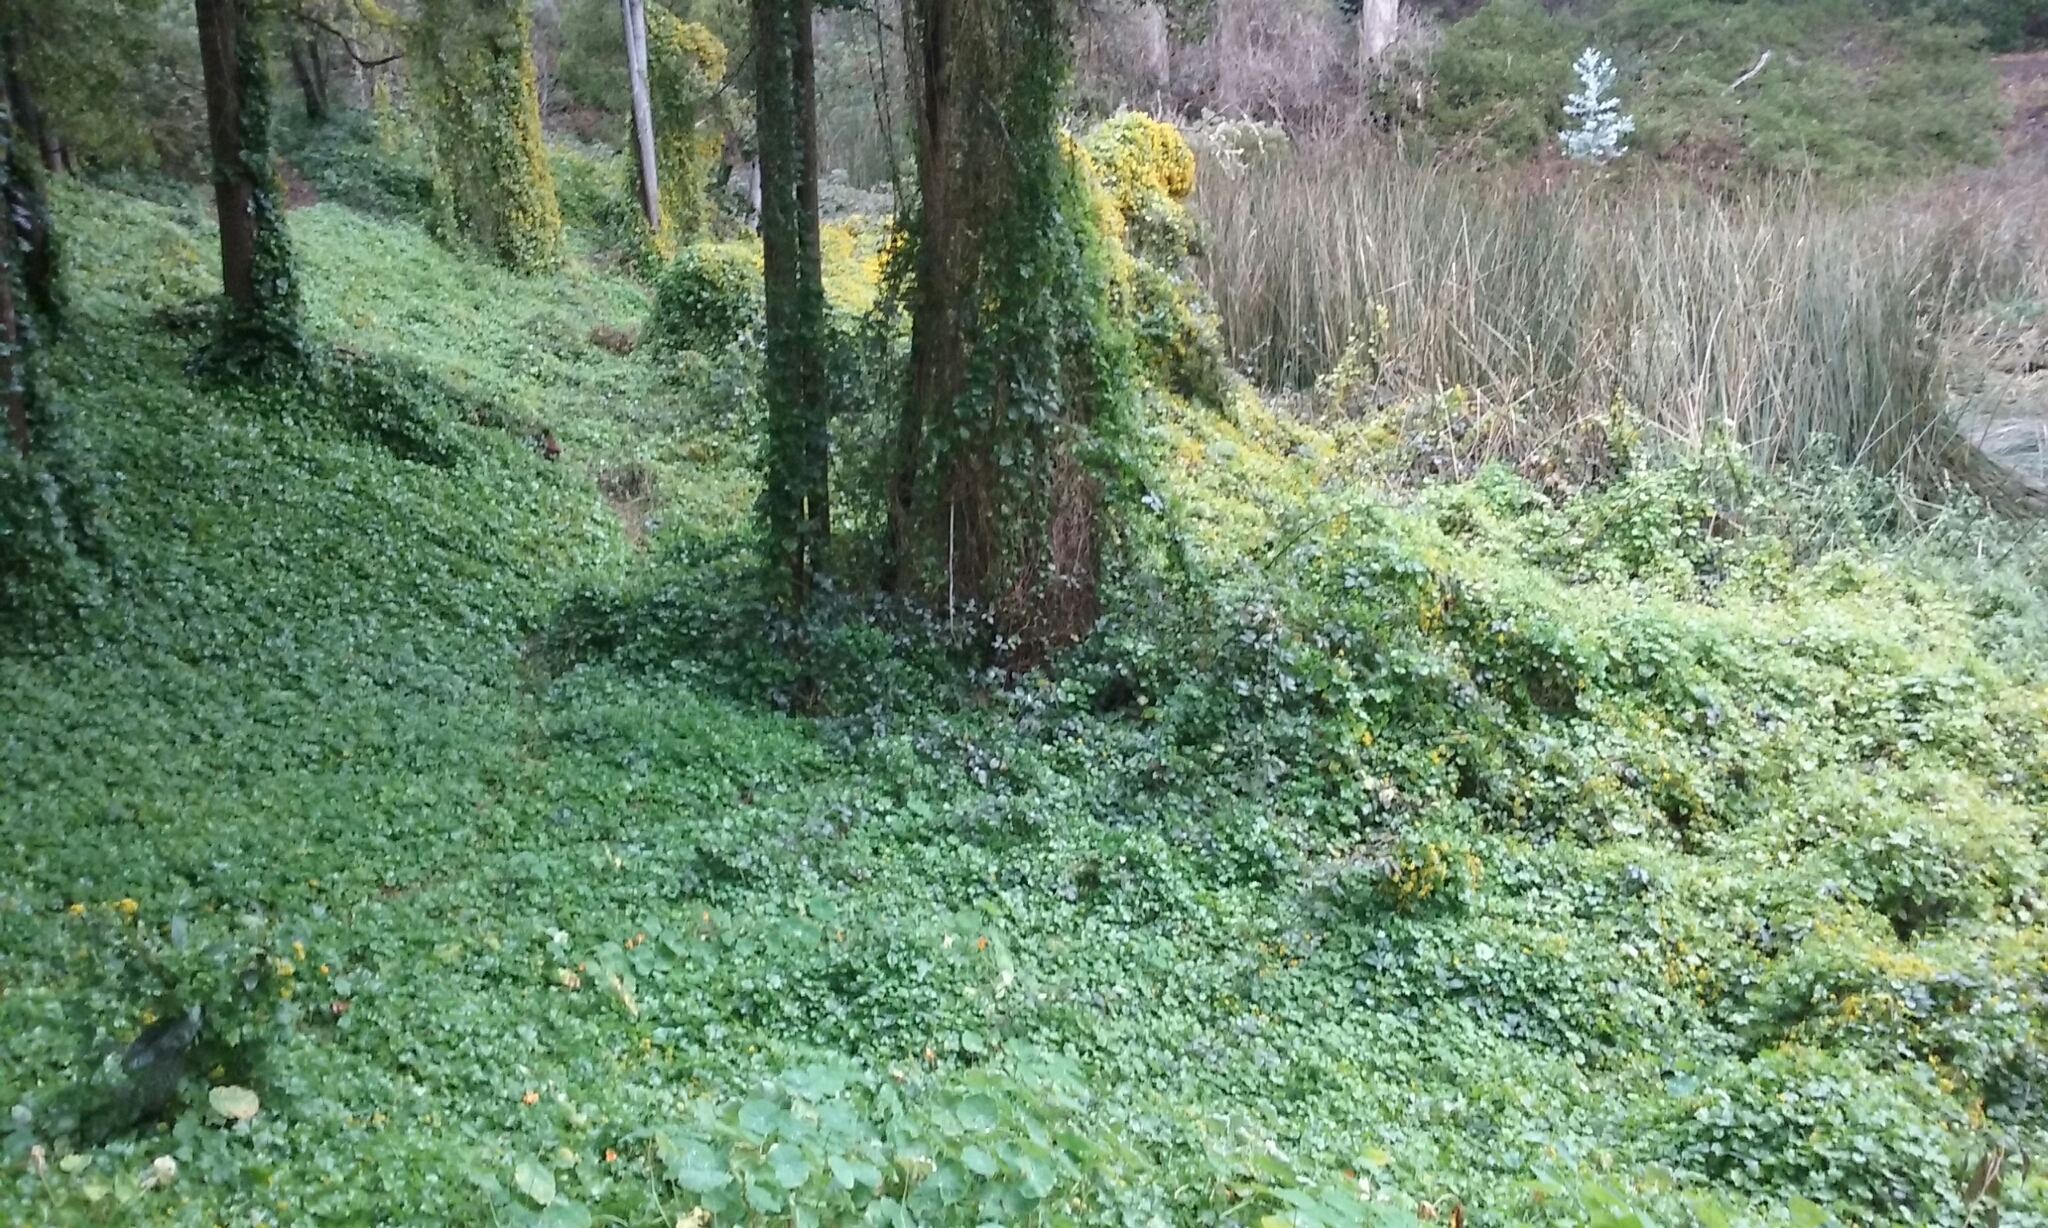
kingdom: Plantae
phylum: Tracheophyta
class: Magnoliopsida
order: Asterales
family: Asteraceae
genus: Delairea
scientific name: Delairea odorata
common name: Cape-ivy
